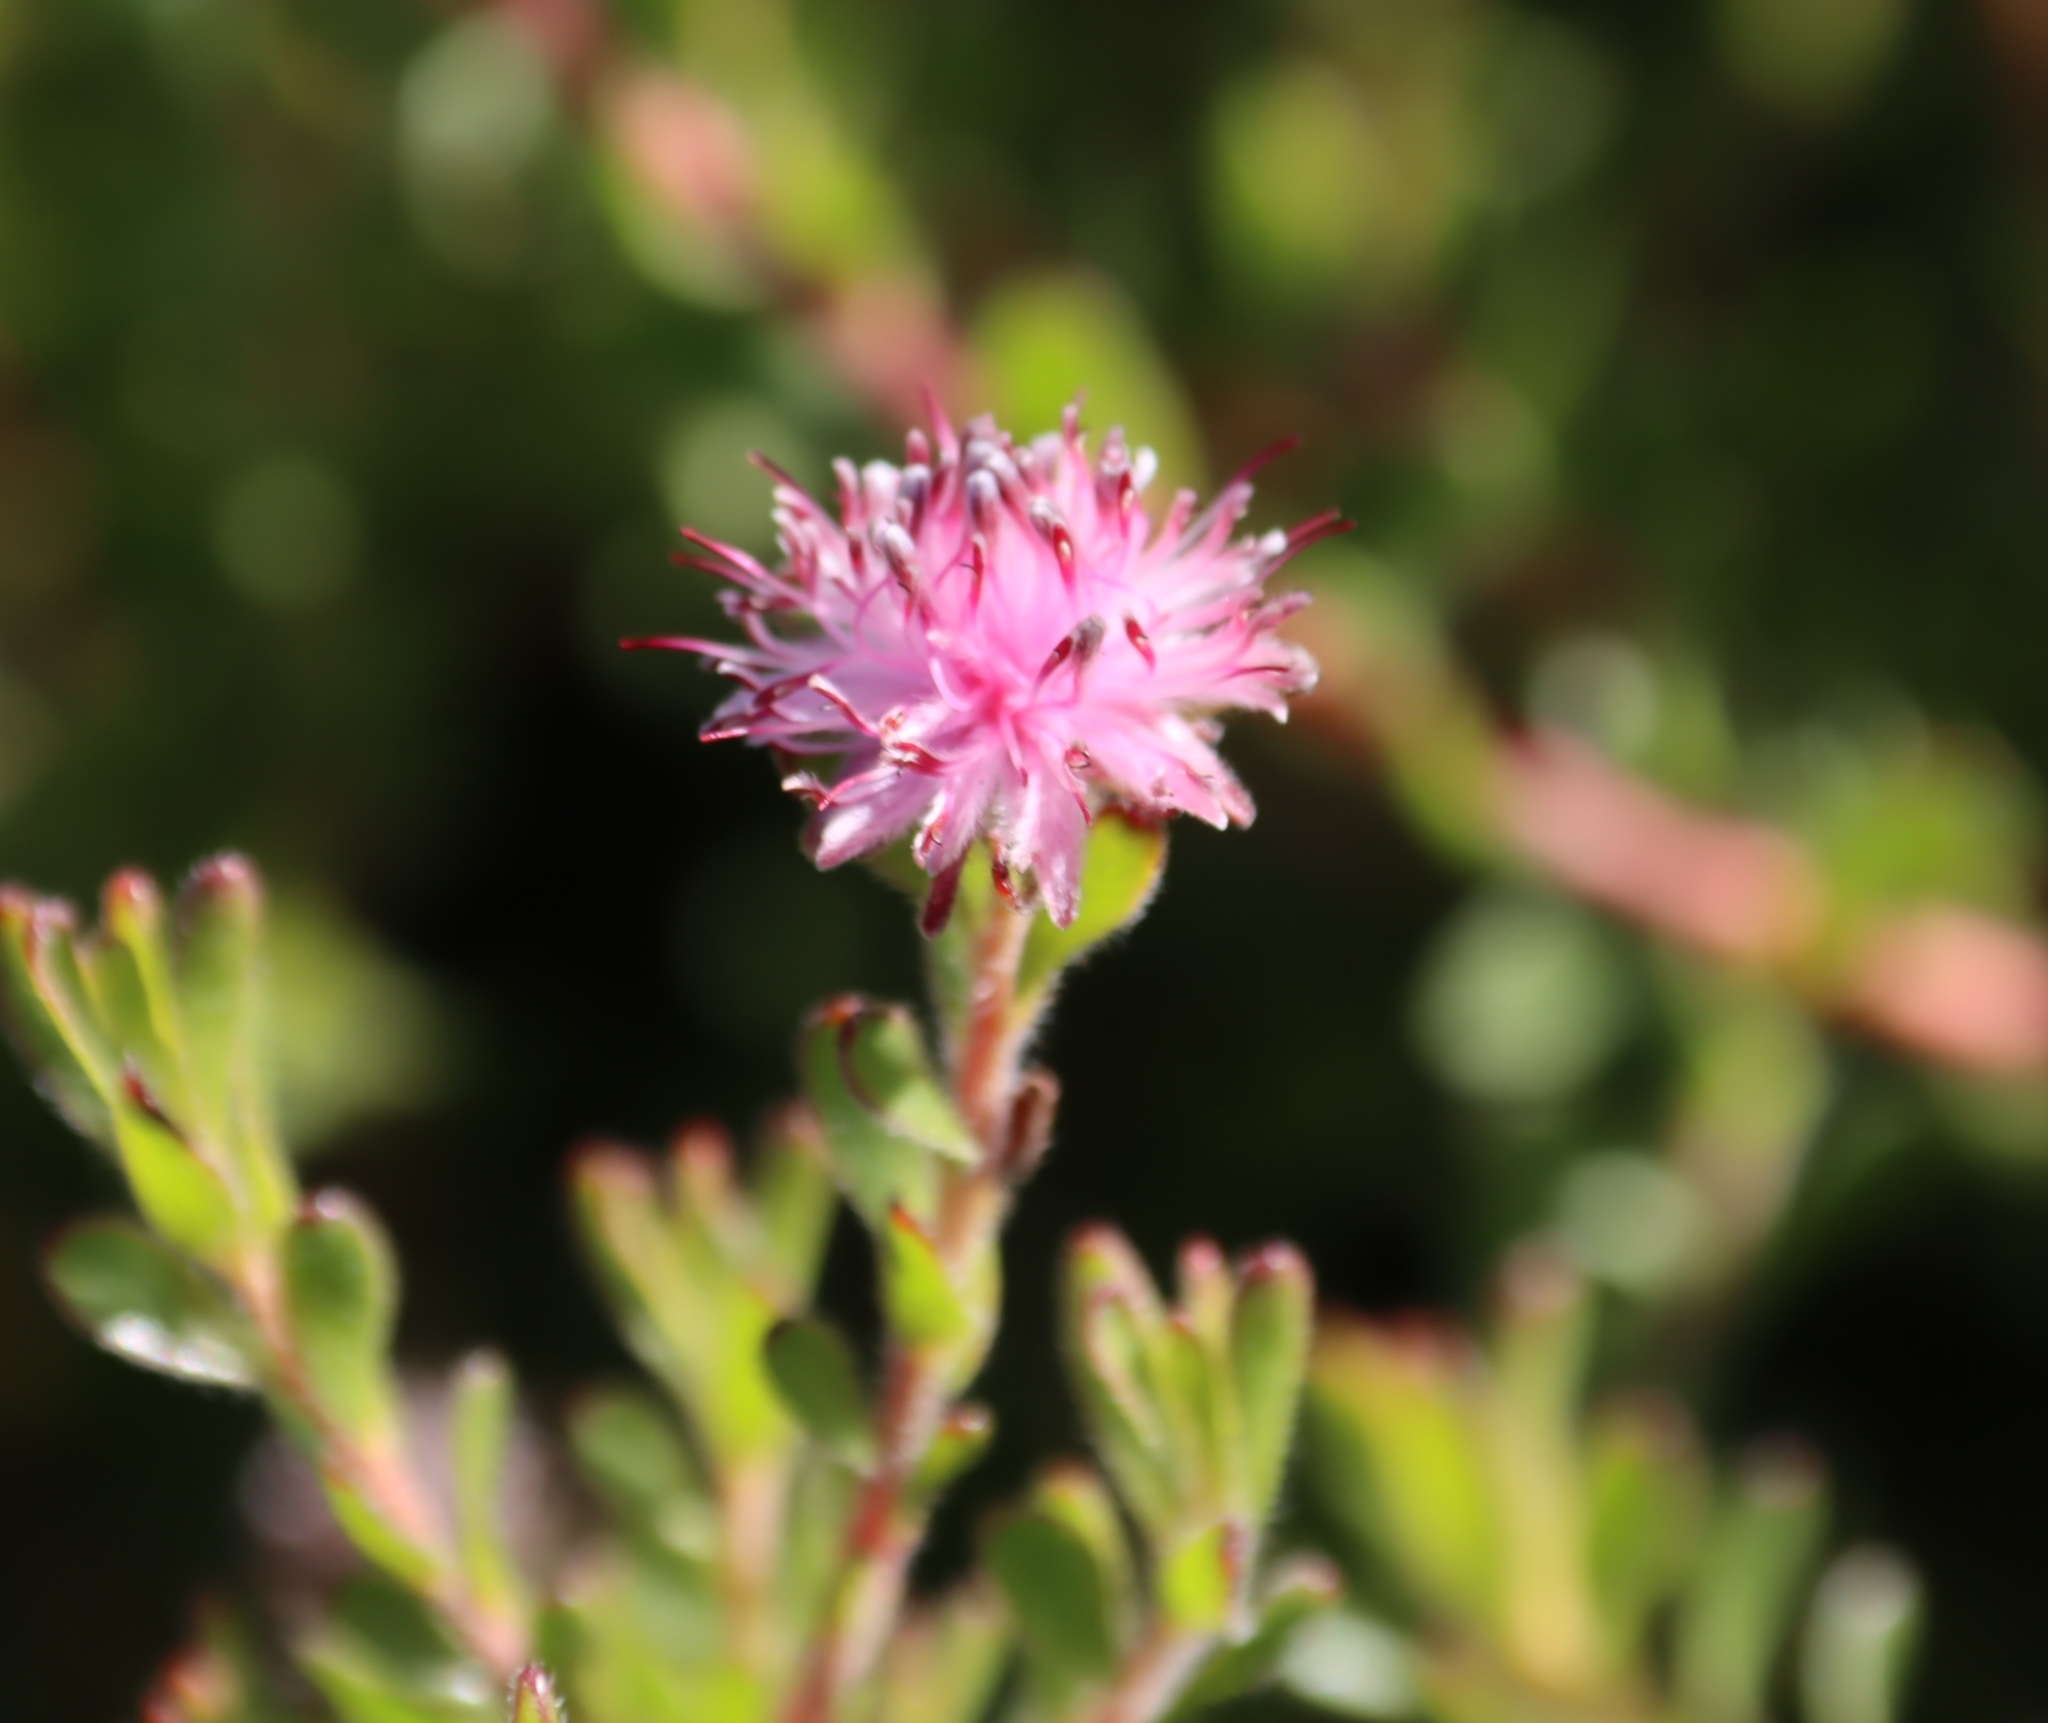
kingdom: Plantae
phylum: Tracheophyta
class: Magnoliopsida
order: Proteales
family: Proteaceae
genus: Diastella
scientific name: Diastella divaricata
